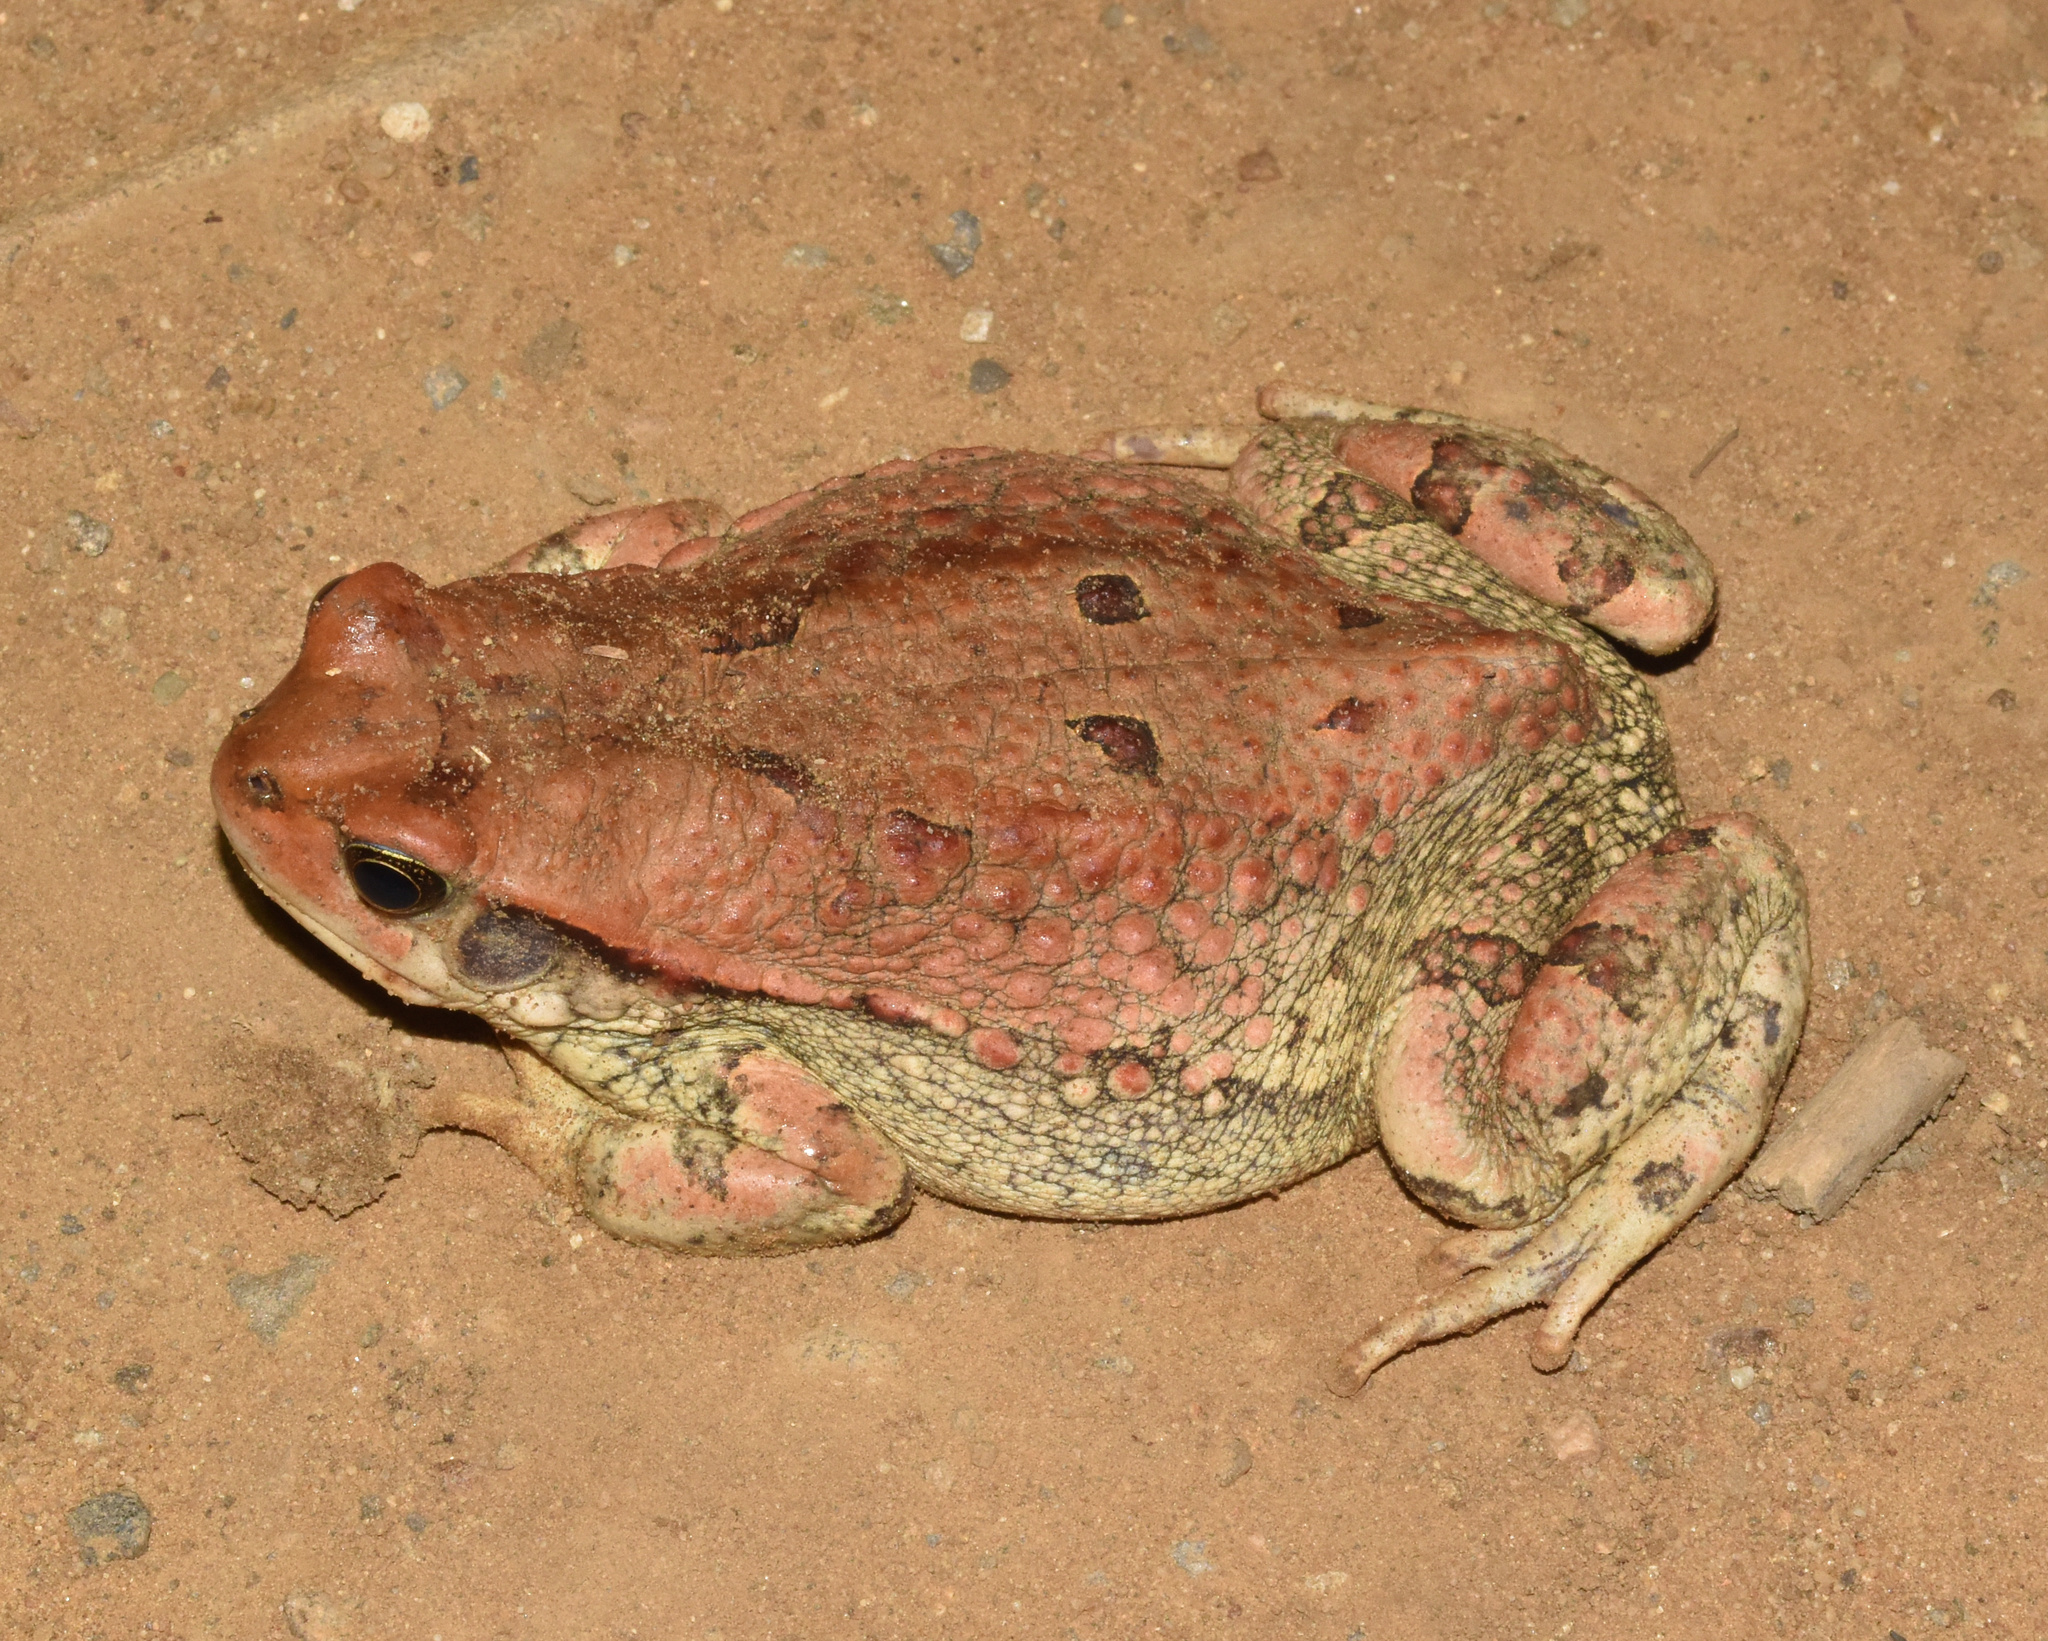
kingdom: Animalia
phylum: Chordata
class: Amphibia
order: Anura
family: Bufonidae
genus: Schismaderma
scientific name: Schismaderma carens
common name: African split-skin toad
